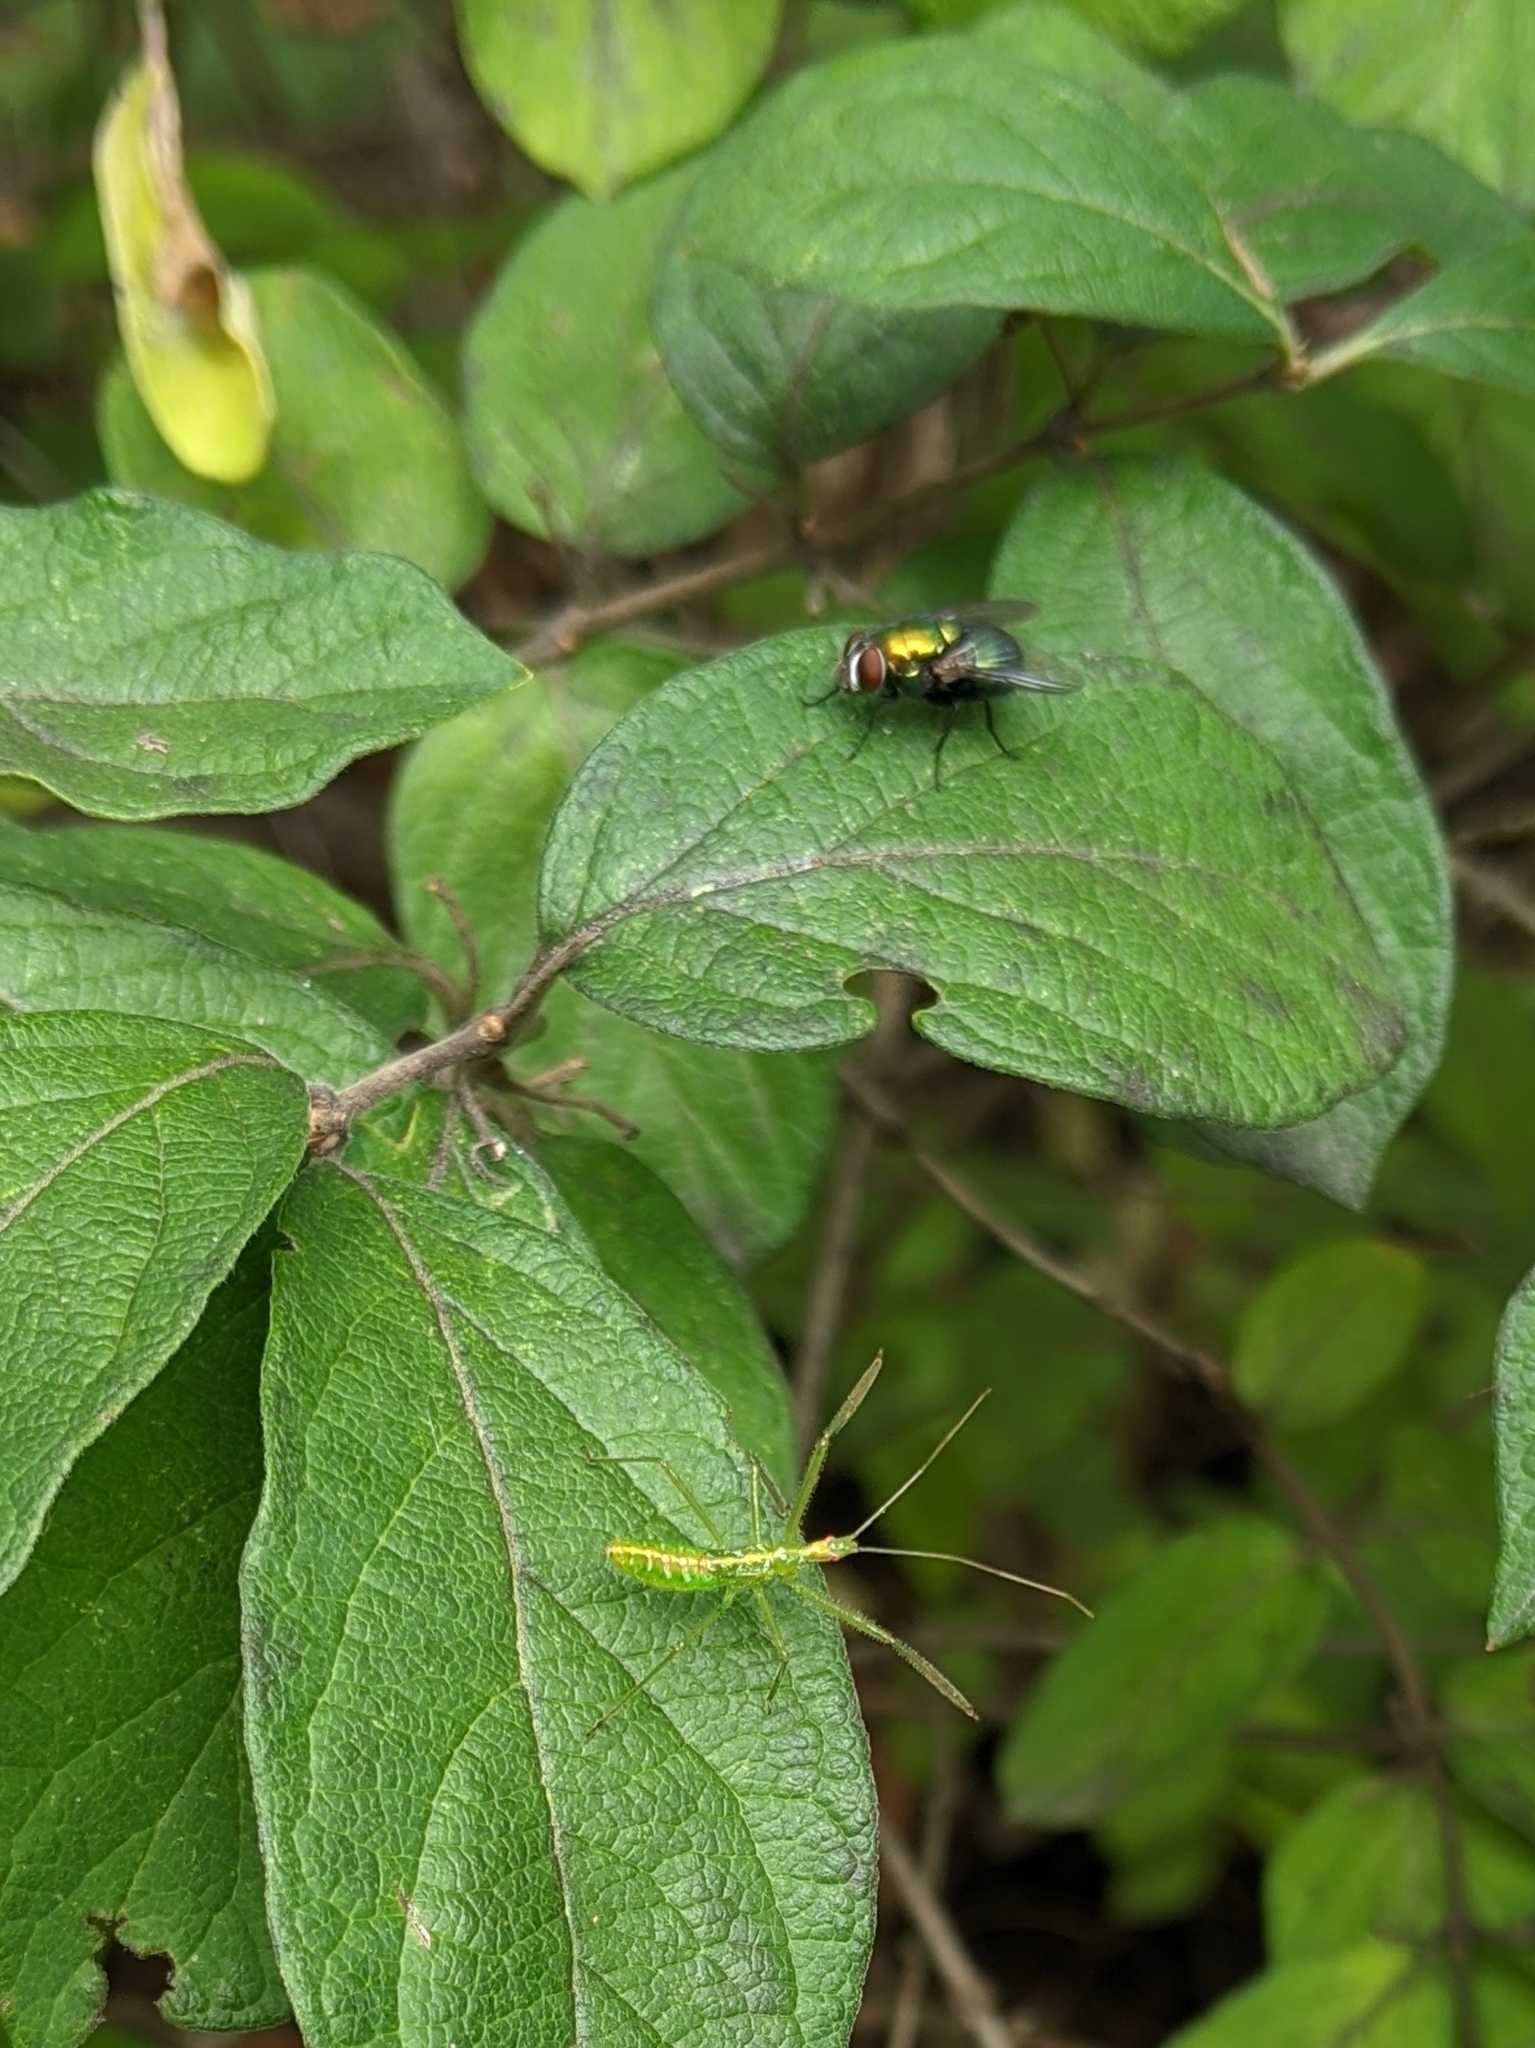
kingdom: Animalia
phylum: Arthropoda
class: Insecta
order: Hemiptera
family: Reduviidae
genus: Zelus
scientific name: Zelus luridus
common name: Pale green assassin bug
